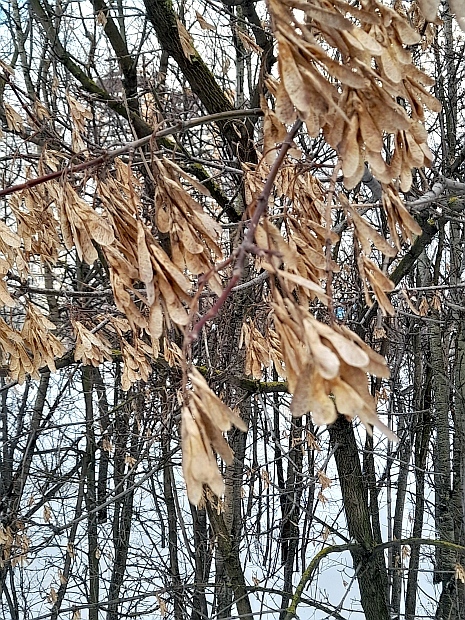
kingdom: Plantae
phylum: Tracheophyta
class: Magnoliopsida
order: Sapindales
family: Sapindaceae
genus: Acer
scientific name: Acer negundo
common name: Ashleaf maple
